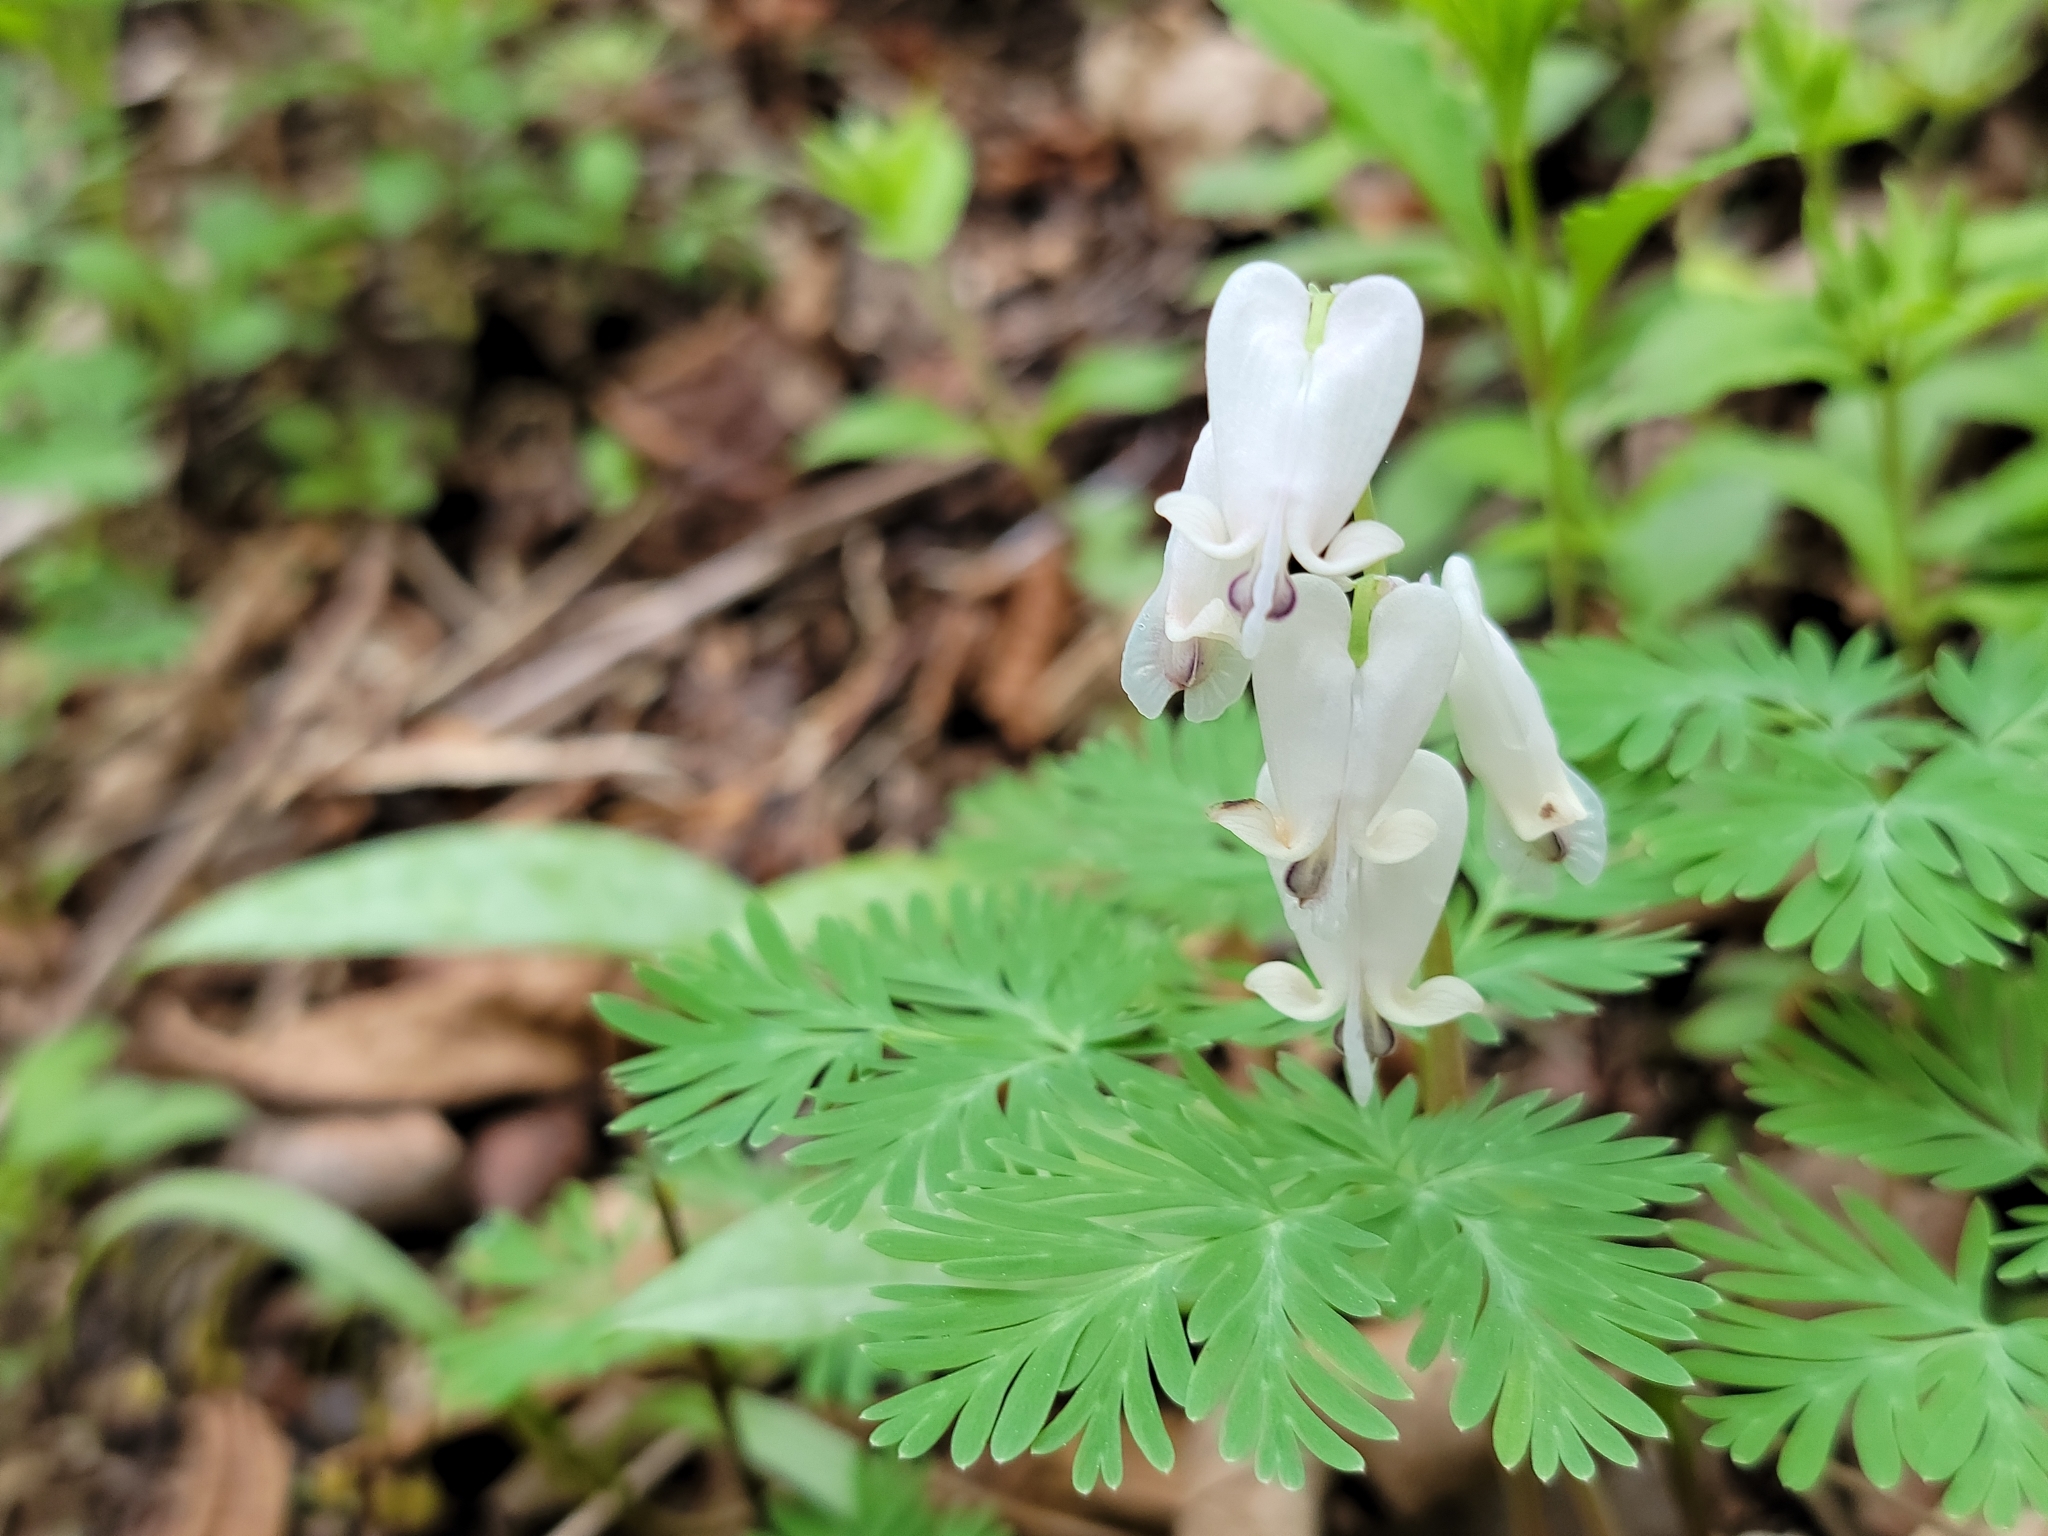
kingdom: Plantae
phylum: Tracheophyta
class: Magnoliopsida
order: Ranunculales
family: Papaveraceae
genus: Dicentra
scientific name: Dicentra canadensis
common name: Squirrel-corn
